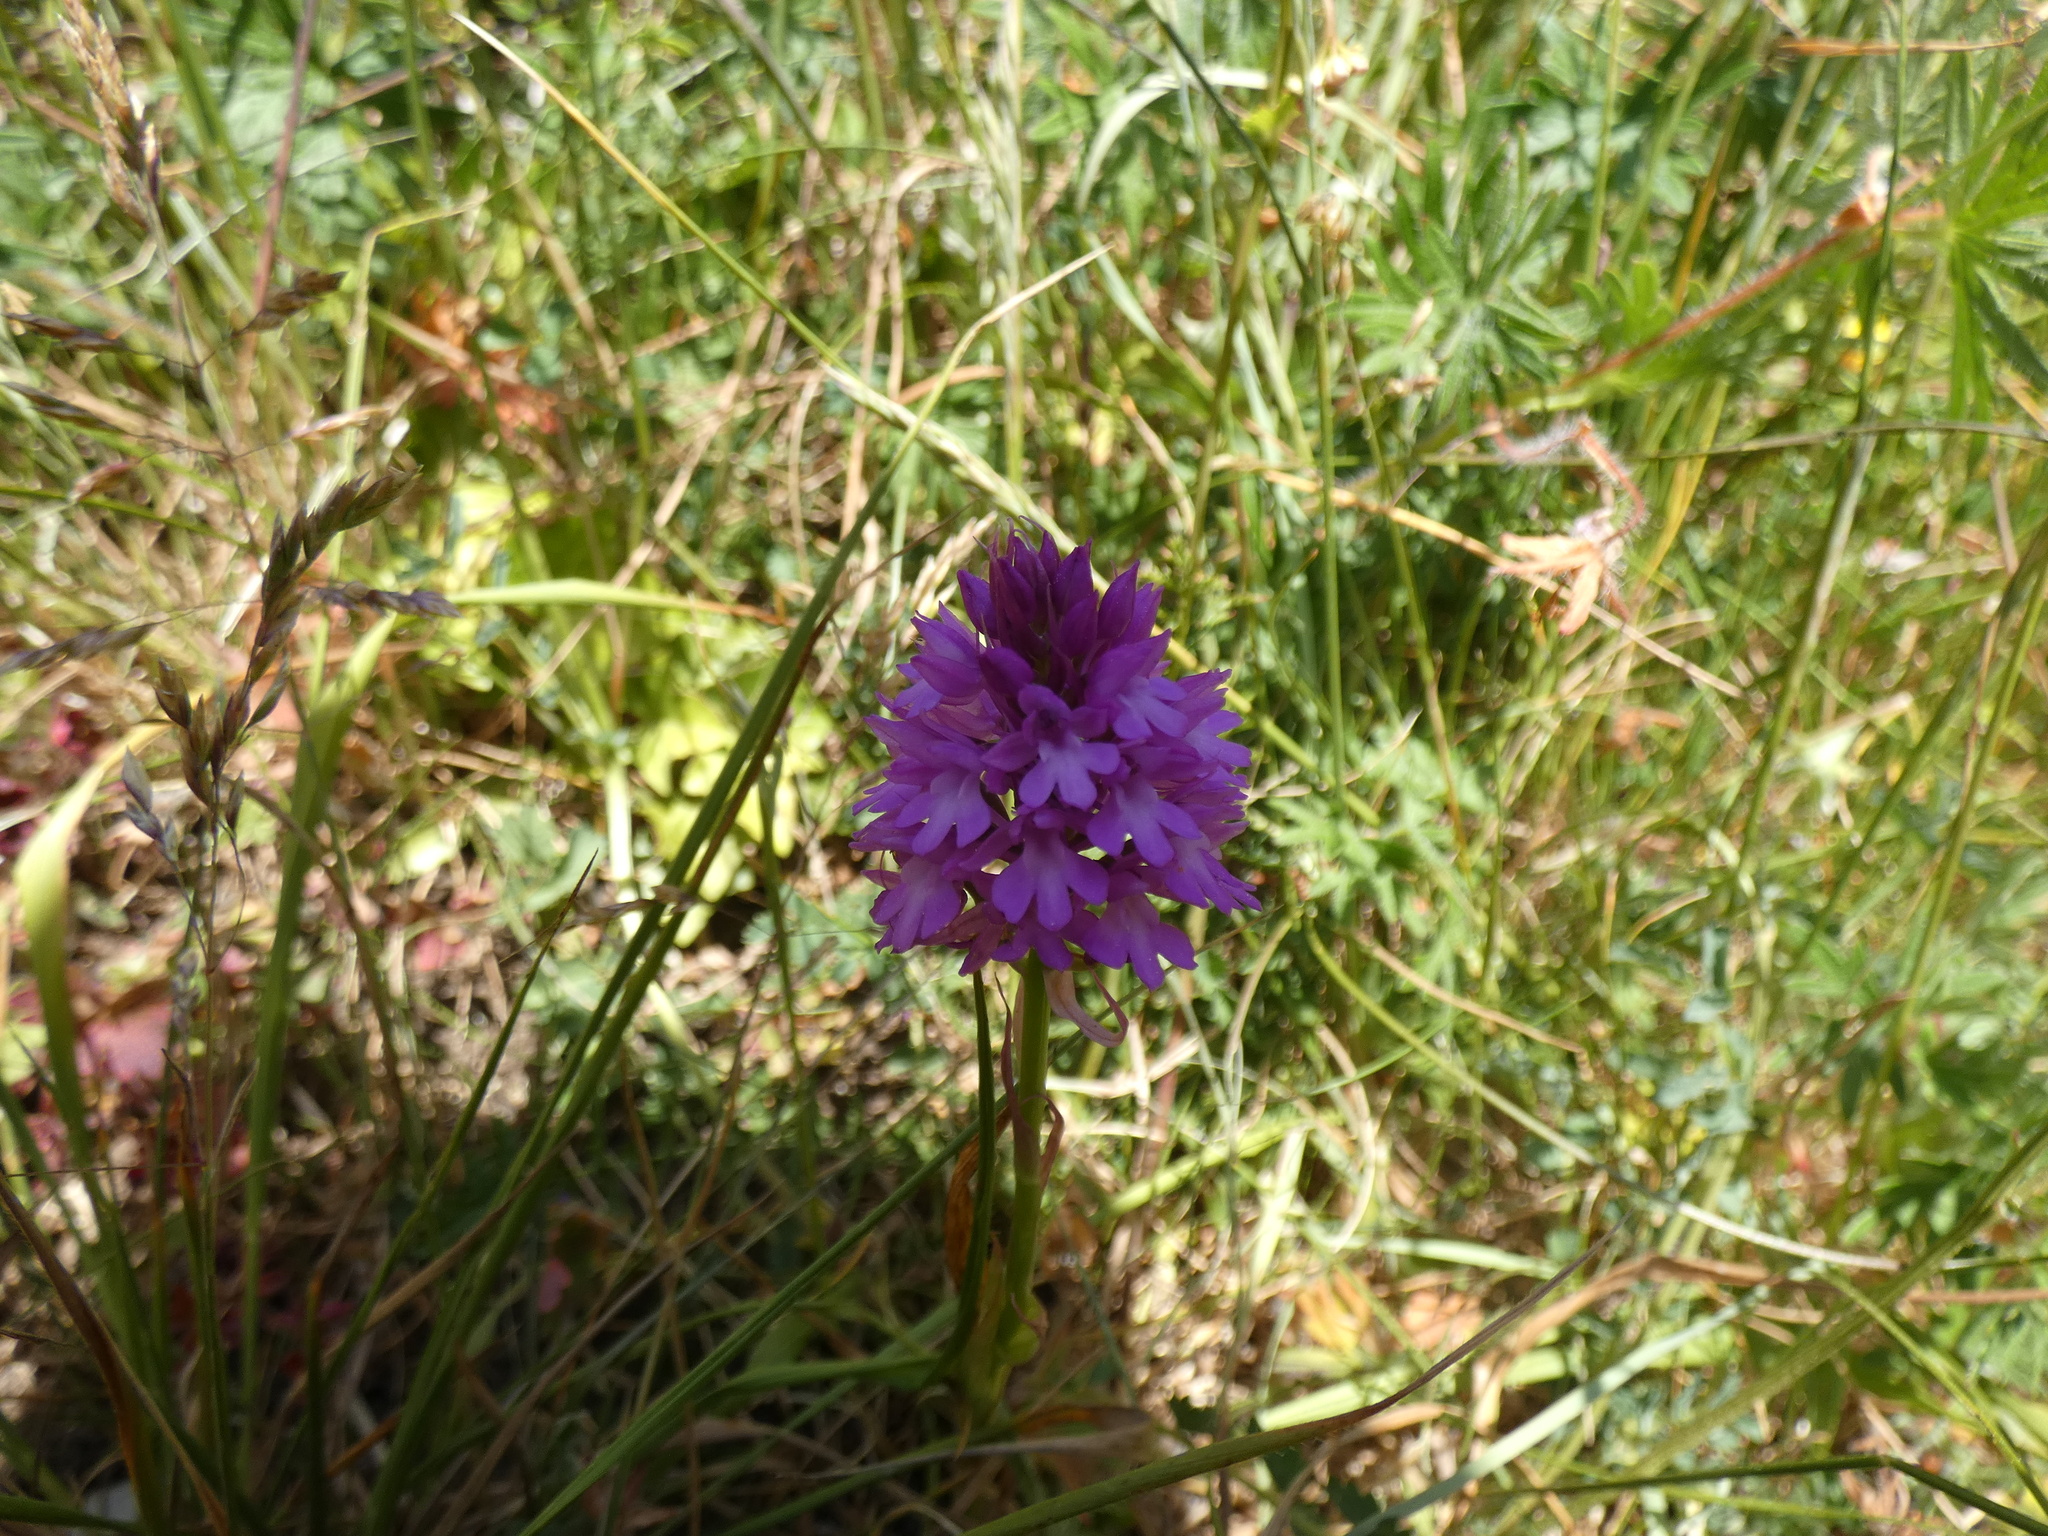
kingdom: Plantae
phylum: Tracheophyta
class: Liliopsida
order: Asparagales
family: Orchidaceae
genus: Anacamptis
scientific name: Anacamptis pyramidalis
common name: Pyramidal orchid
